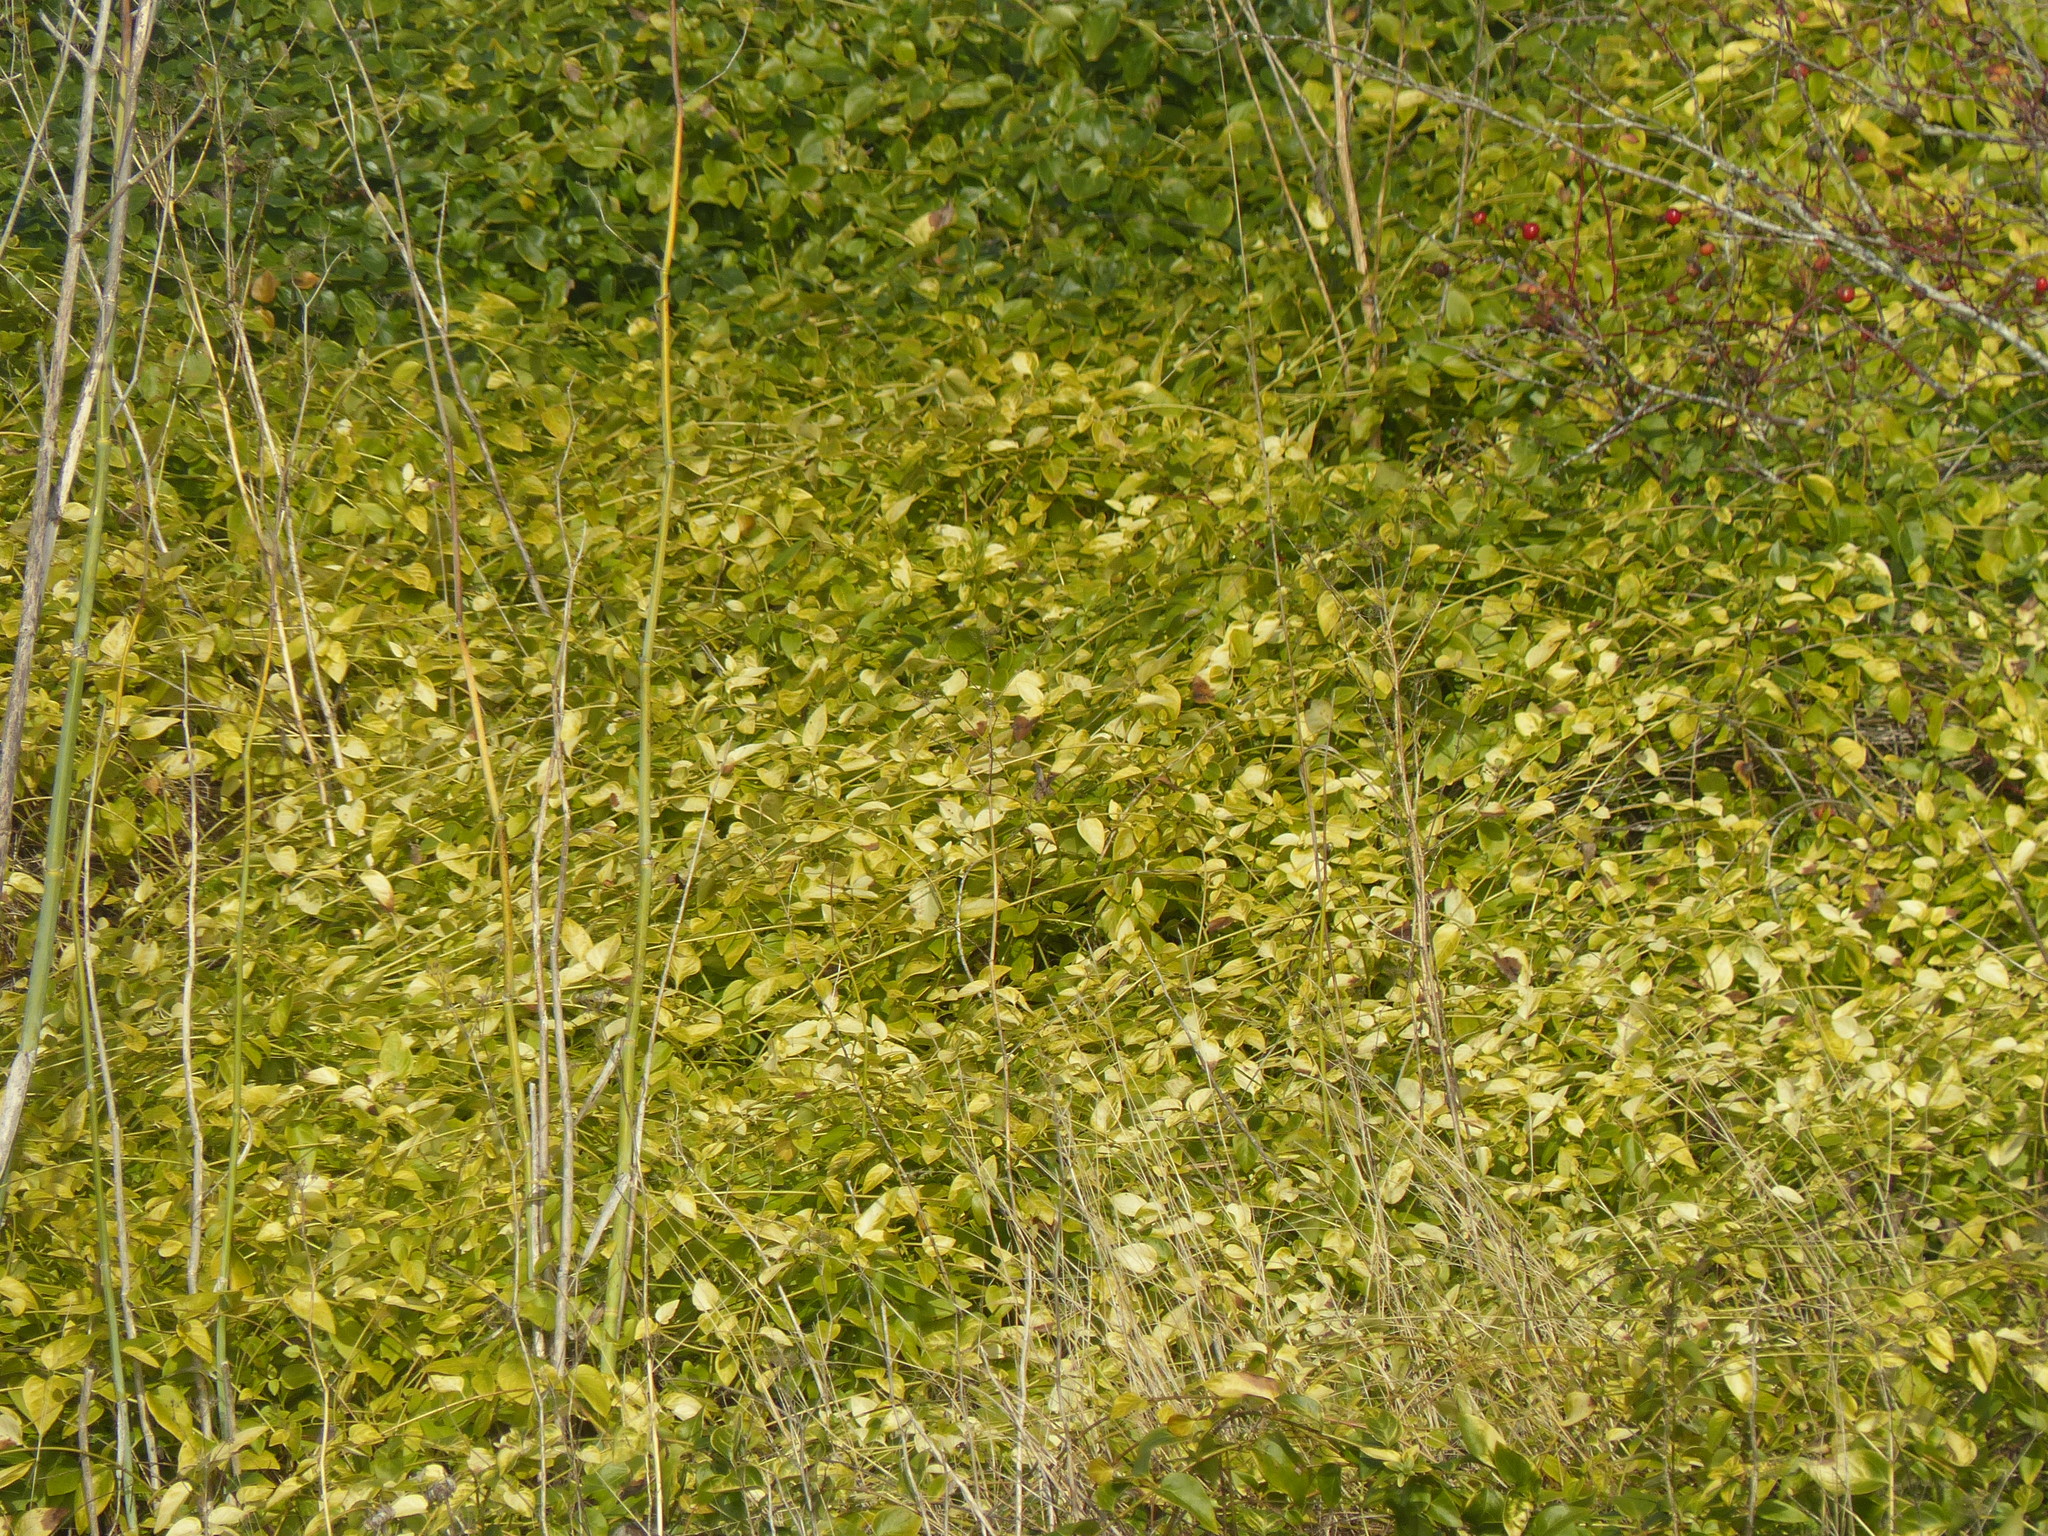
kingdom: Plantae
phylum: Tracheophyta
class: Magnoliopsida
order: Gentianales
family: Apocynaceae
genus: Vinca
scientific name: Vinca major
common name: Greater periwinkle
